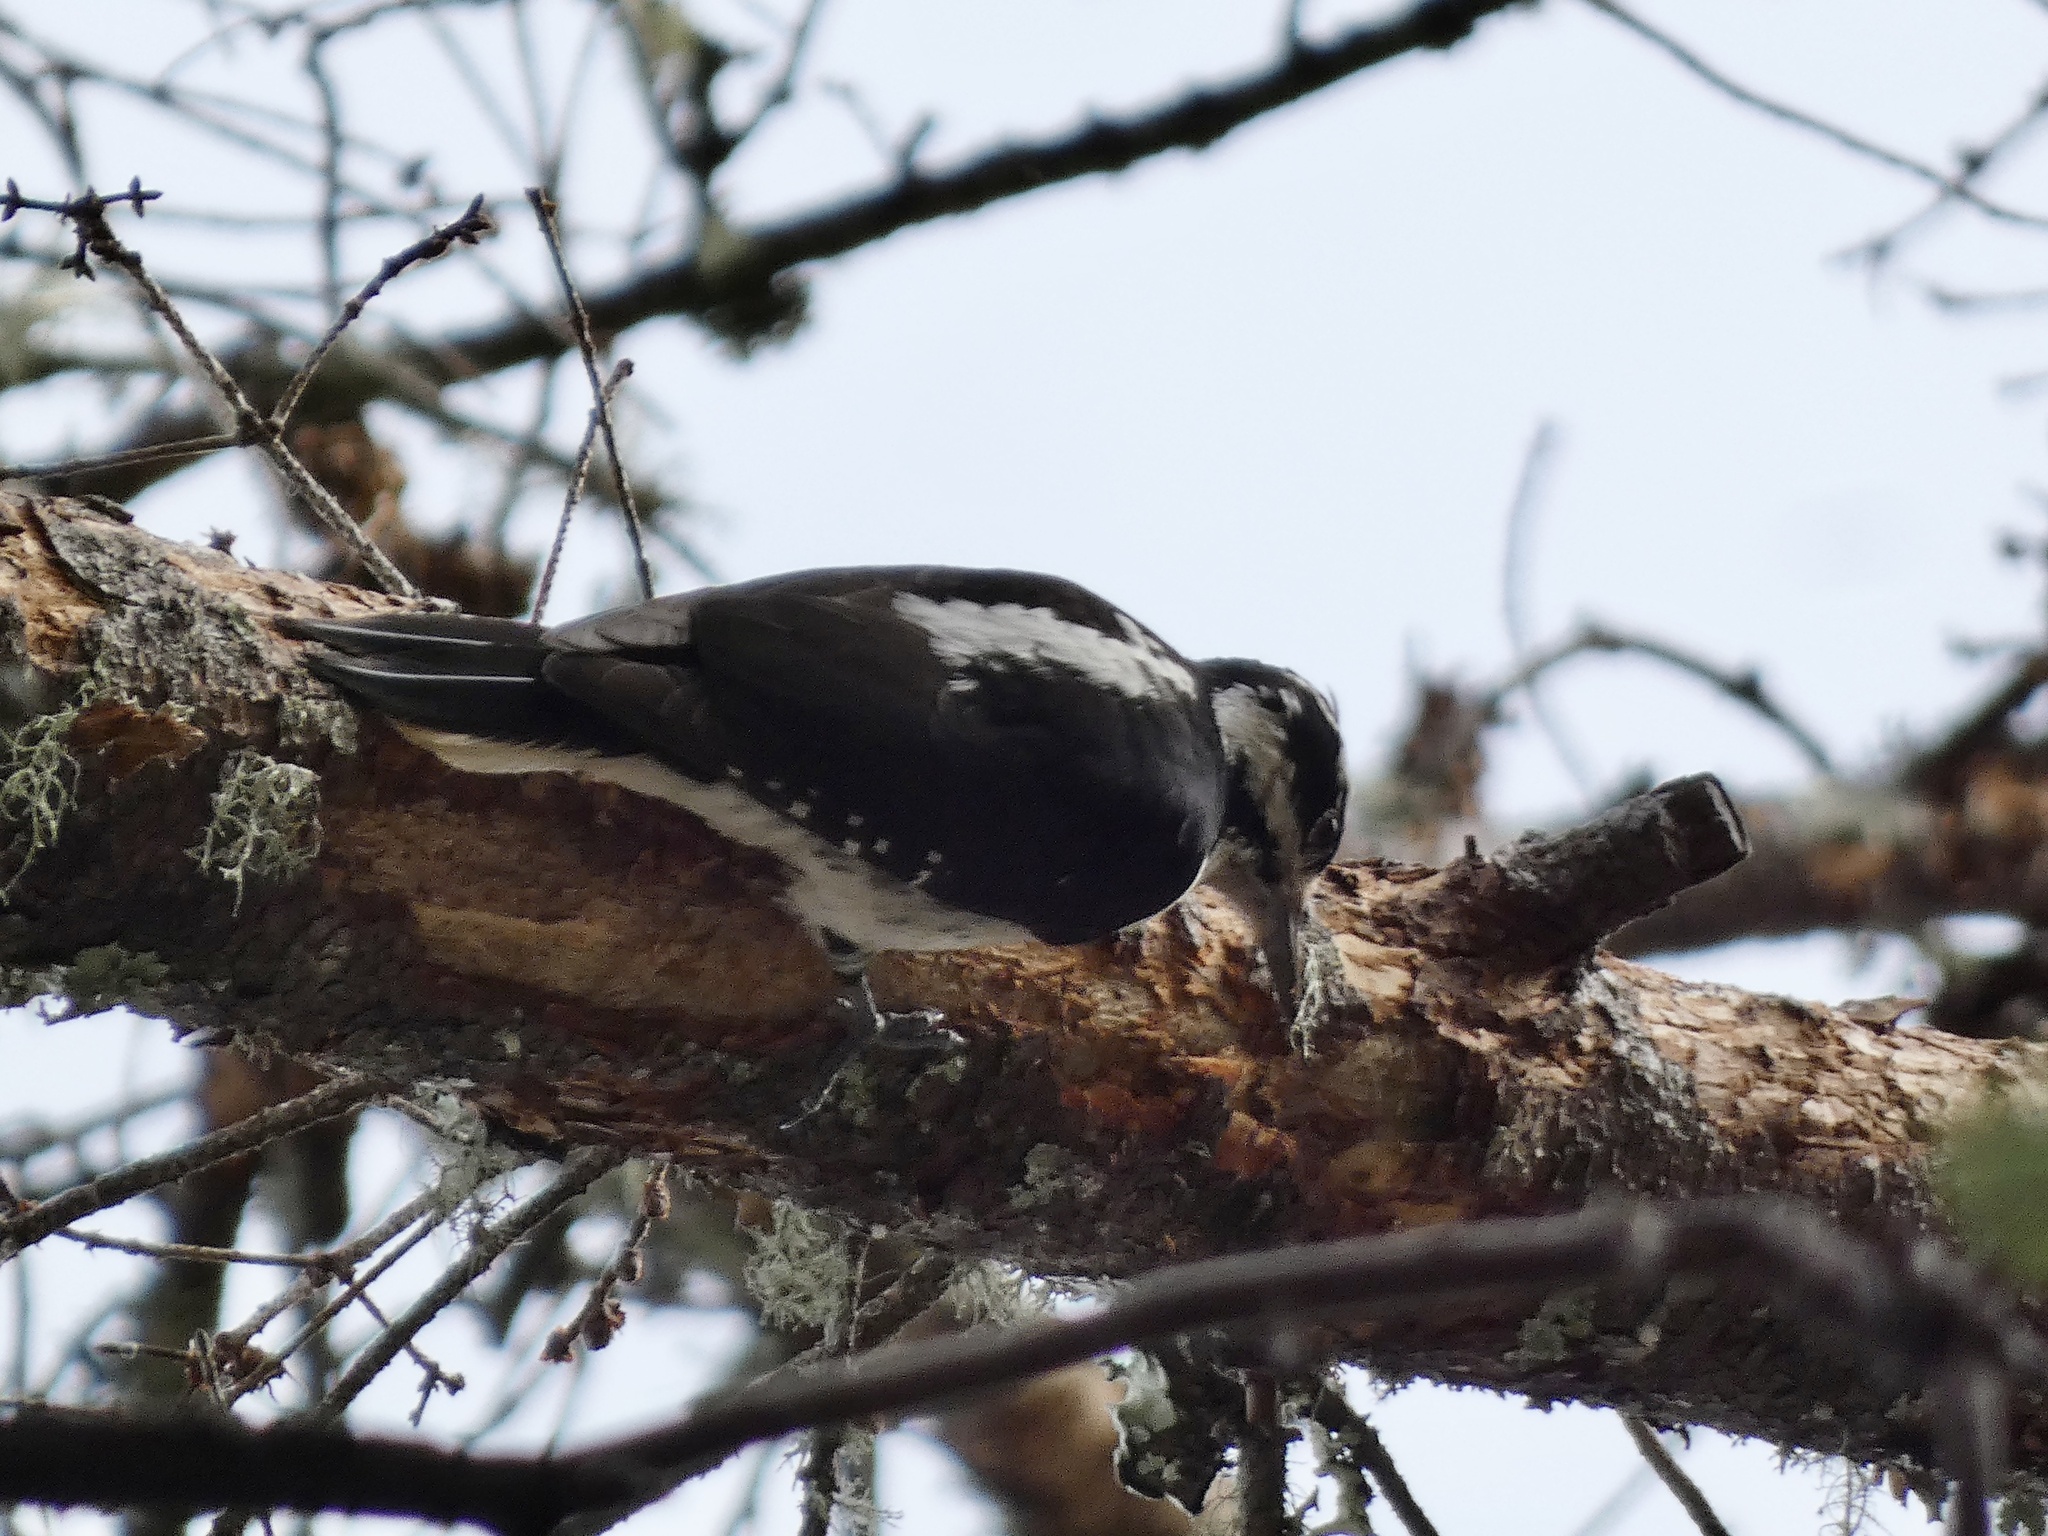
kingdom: Animalia
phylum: Chordata
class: Aves
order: Piciformes
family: Picidae
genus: Leuconotopicus
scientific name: Leuconotopicus villosus
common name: Hairy woodpecker
